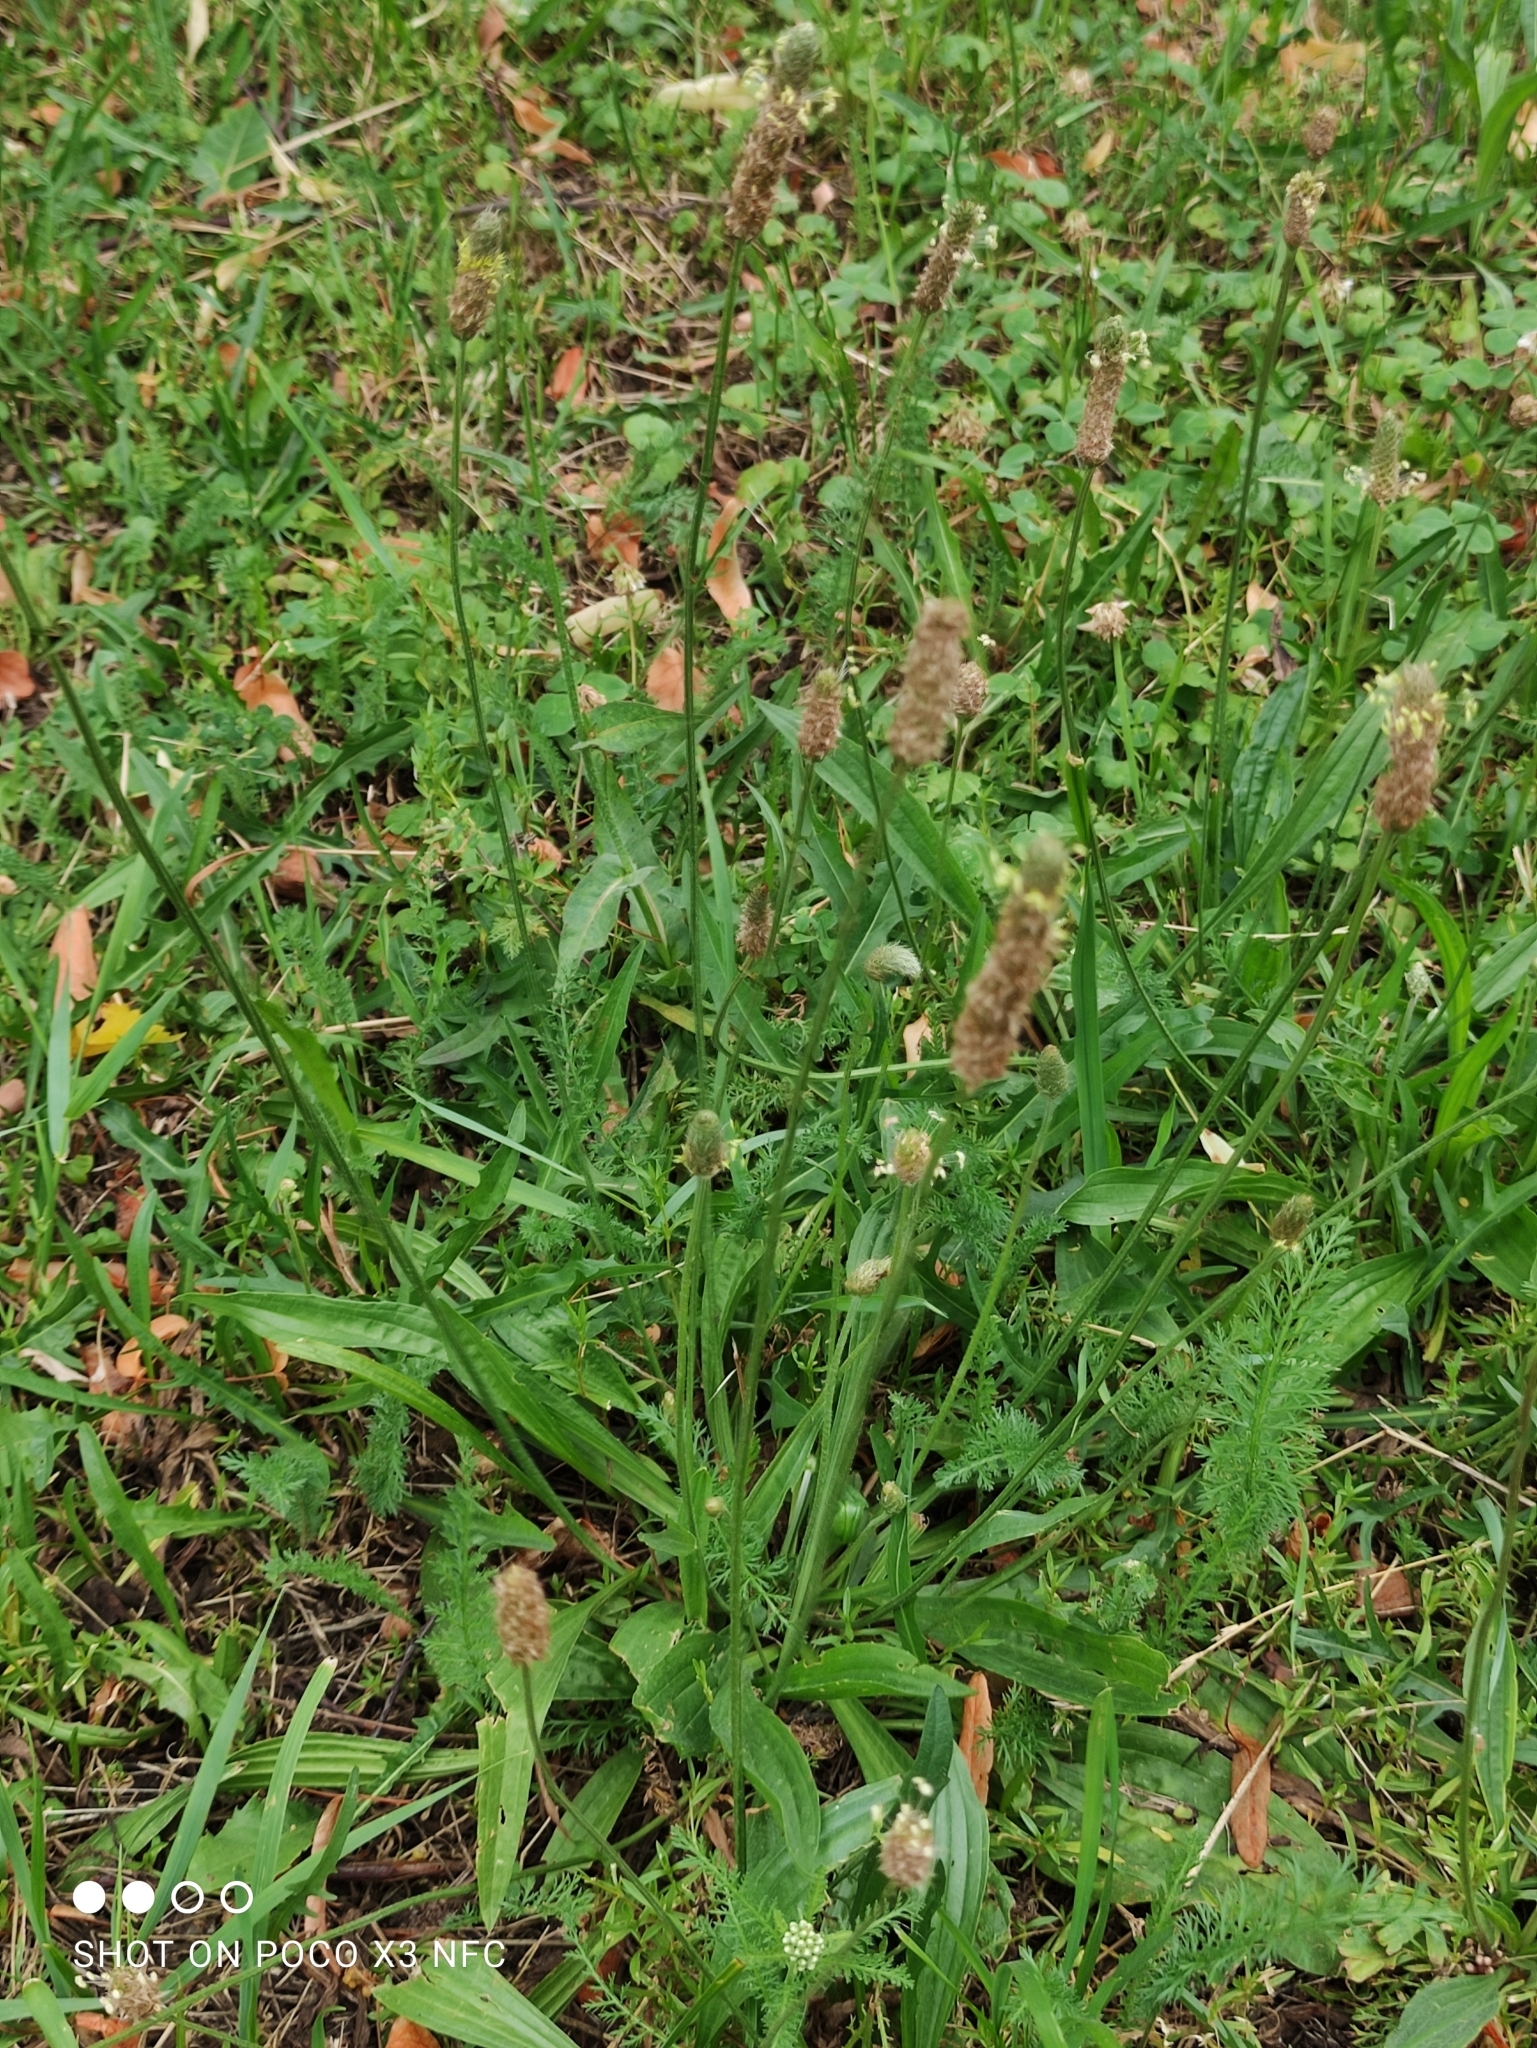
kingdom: Plantae
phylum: Tracheophyta
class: Magnoliopsida
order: Lamiales
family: Plantaginaceae
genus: Plantago
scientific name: Plantago lanceolata
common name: Ribwort plantain
